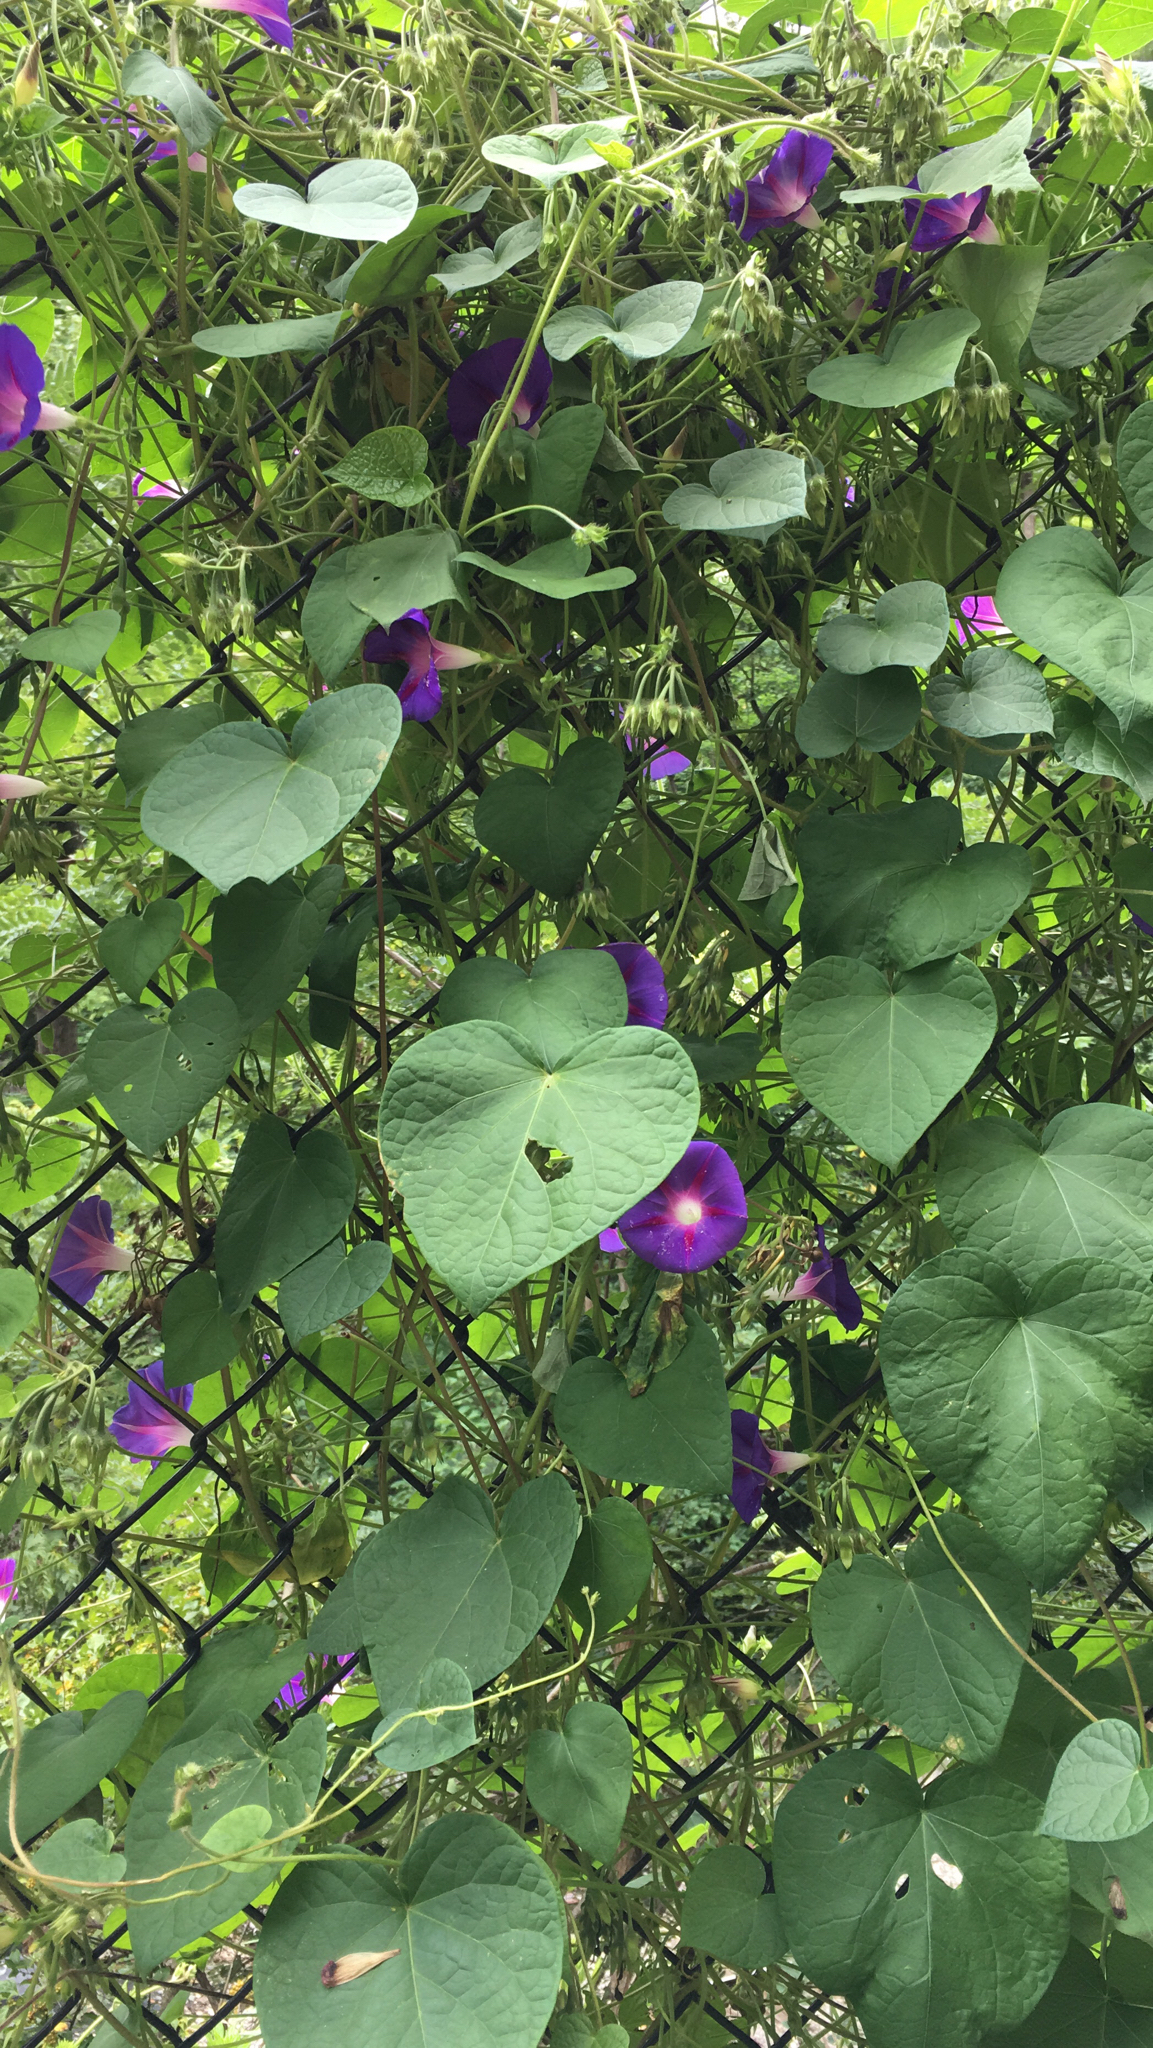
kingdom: Plantae
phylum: Tracheophyta
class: Magnoliopsida
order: Solanales
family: Convolvulaceae
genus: Ipomoea
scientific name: Ipomoea purpurea
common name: Common morning-glory
